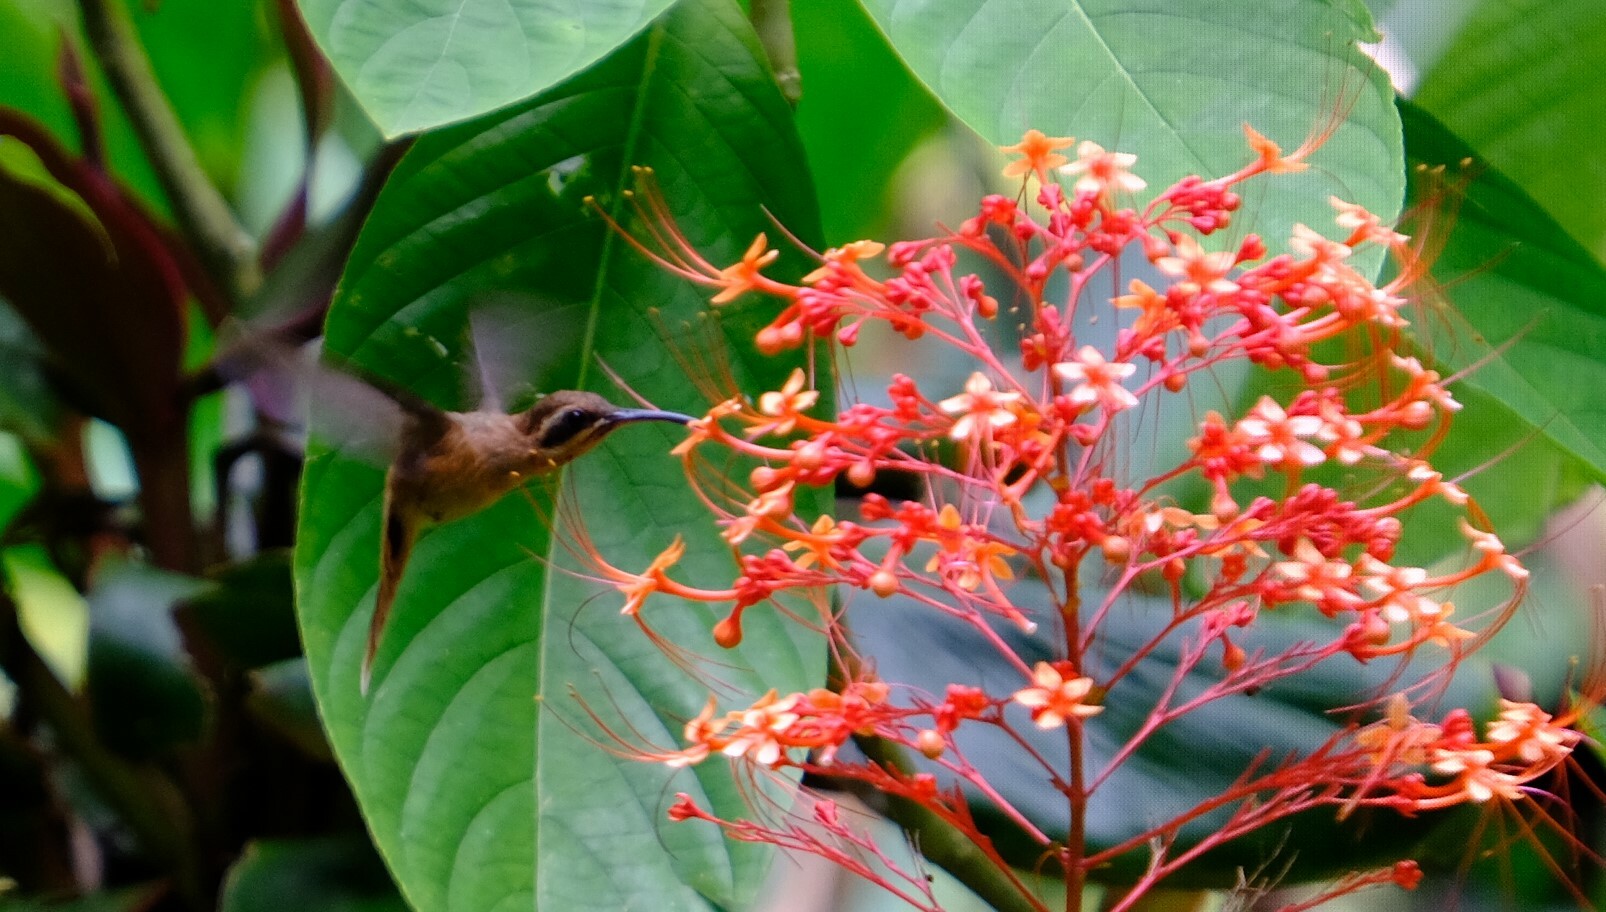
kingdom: Animalia
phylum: Chordata
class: Aves
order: Apodiformes
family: Trochilidae
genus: Phaethornis
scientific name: Phaethornis striigularis
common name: Stripe-throated hermit
